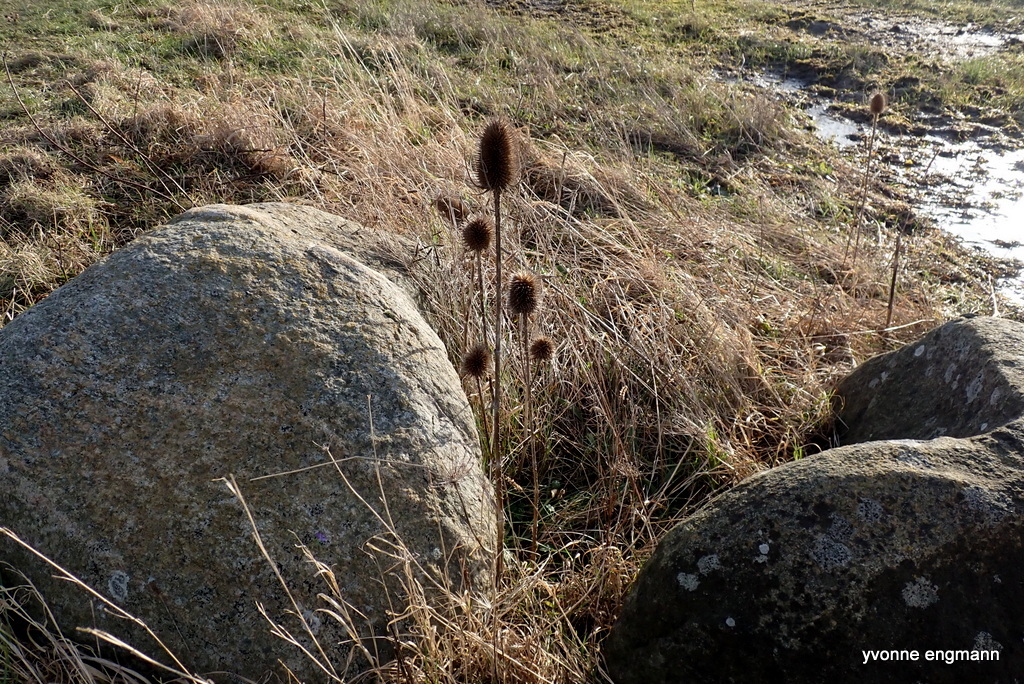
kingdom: Plantae
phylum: Tracheophyta
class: Magnoliopsida
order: Dipsacales
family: Caprifoliaceae
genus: Dipsacus
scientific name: Dipsacus fullonum
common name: Teasel
